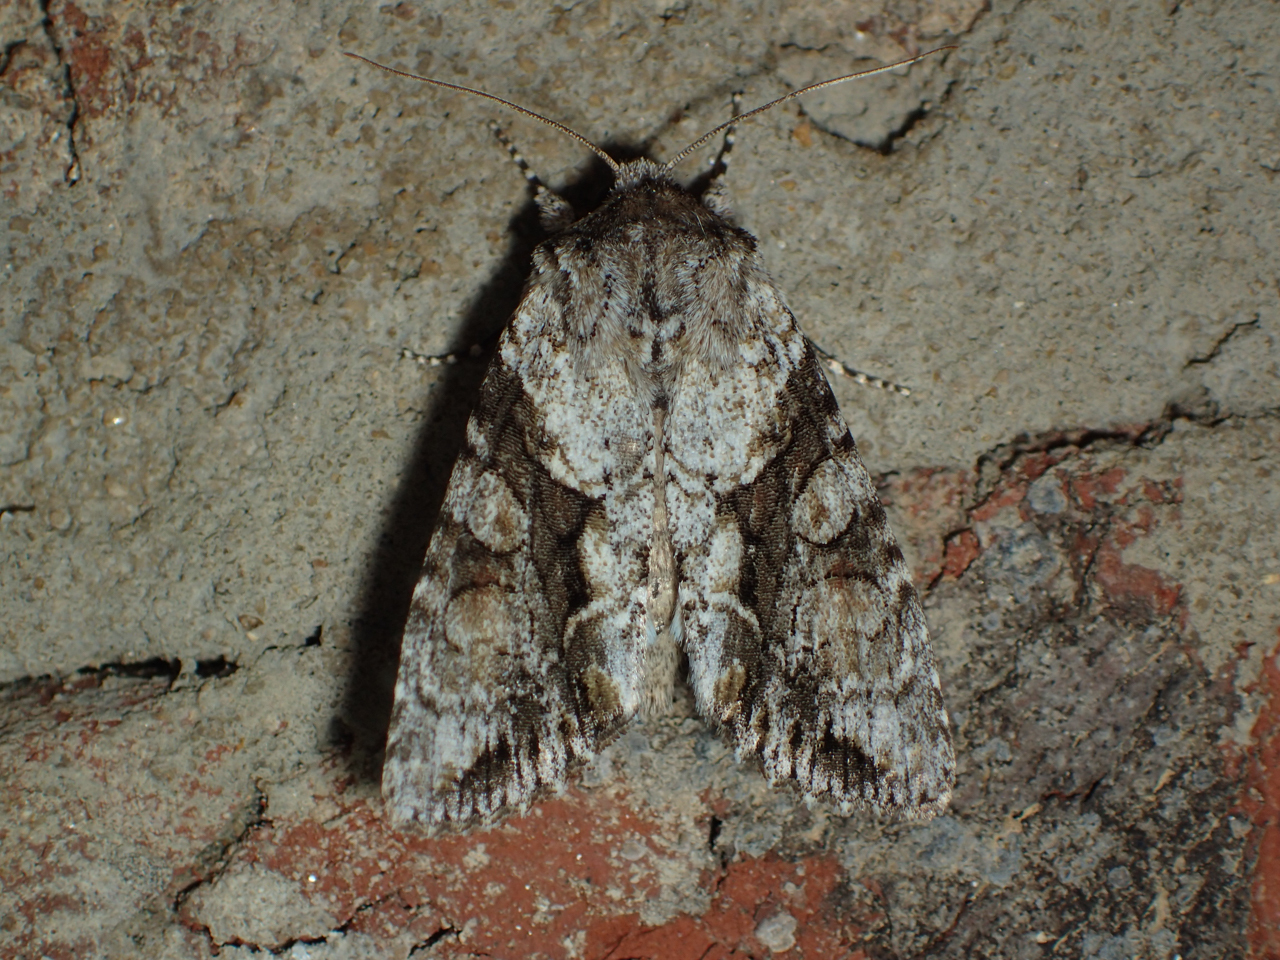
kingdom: Animalia
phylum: Arthropoda
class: Insecta
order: Lepidoptera
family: Noctuidae
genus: Achatia
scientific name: Achatia distincta
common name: Distinct quaker
